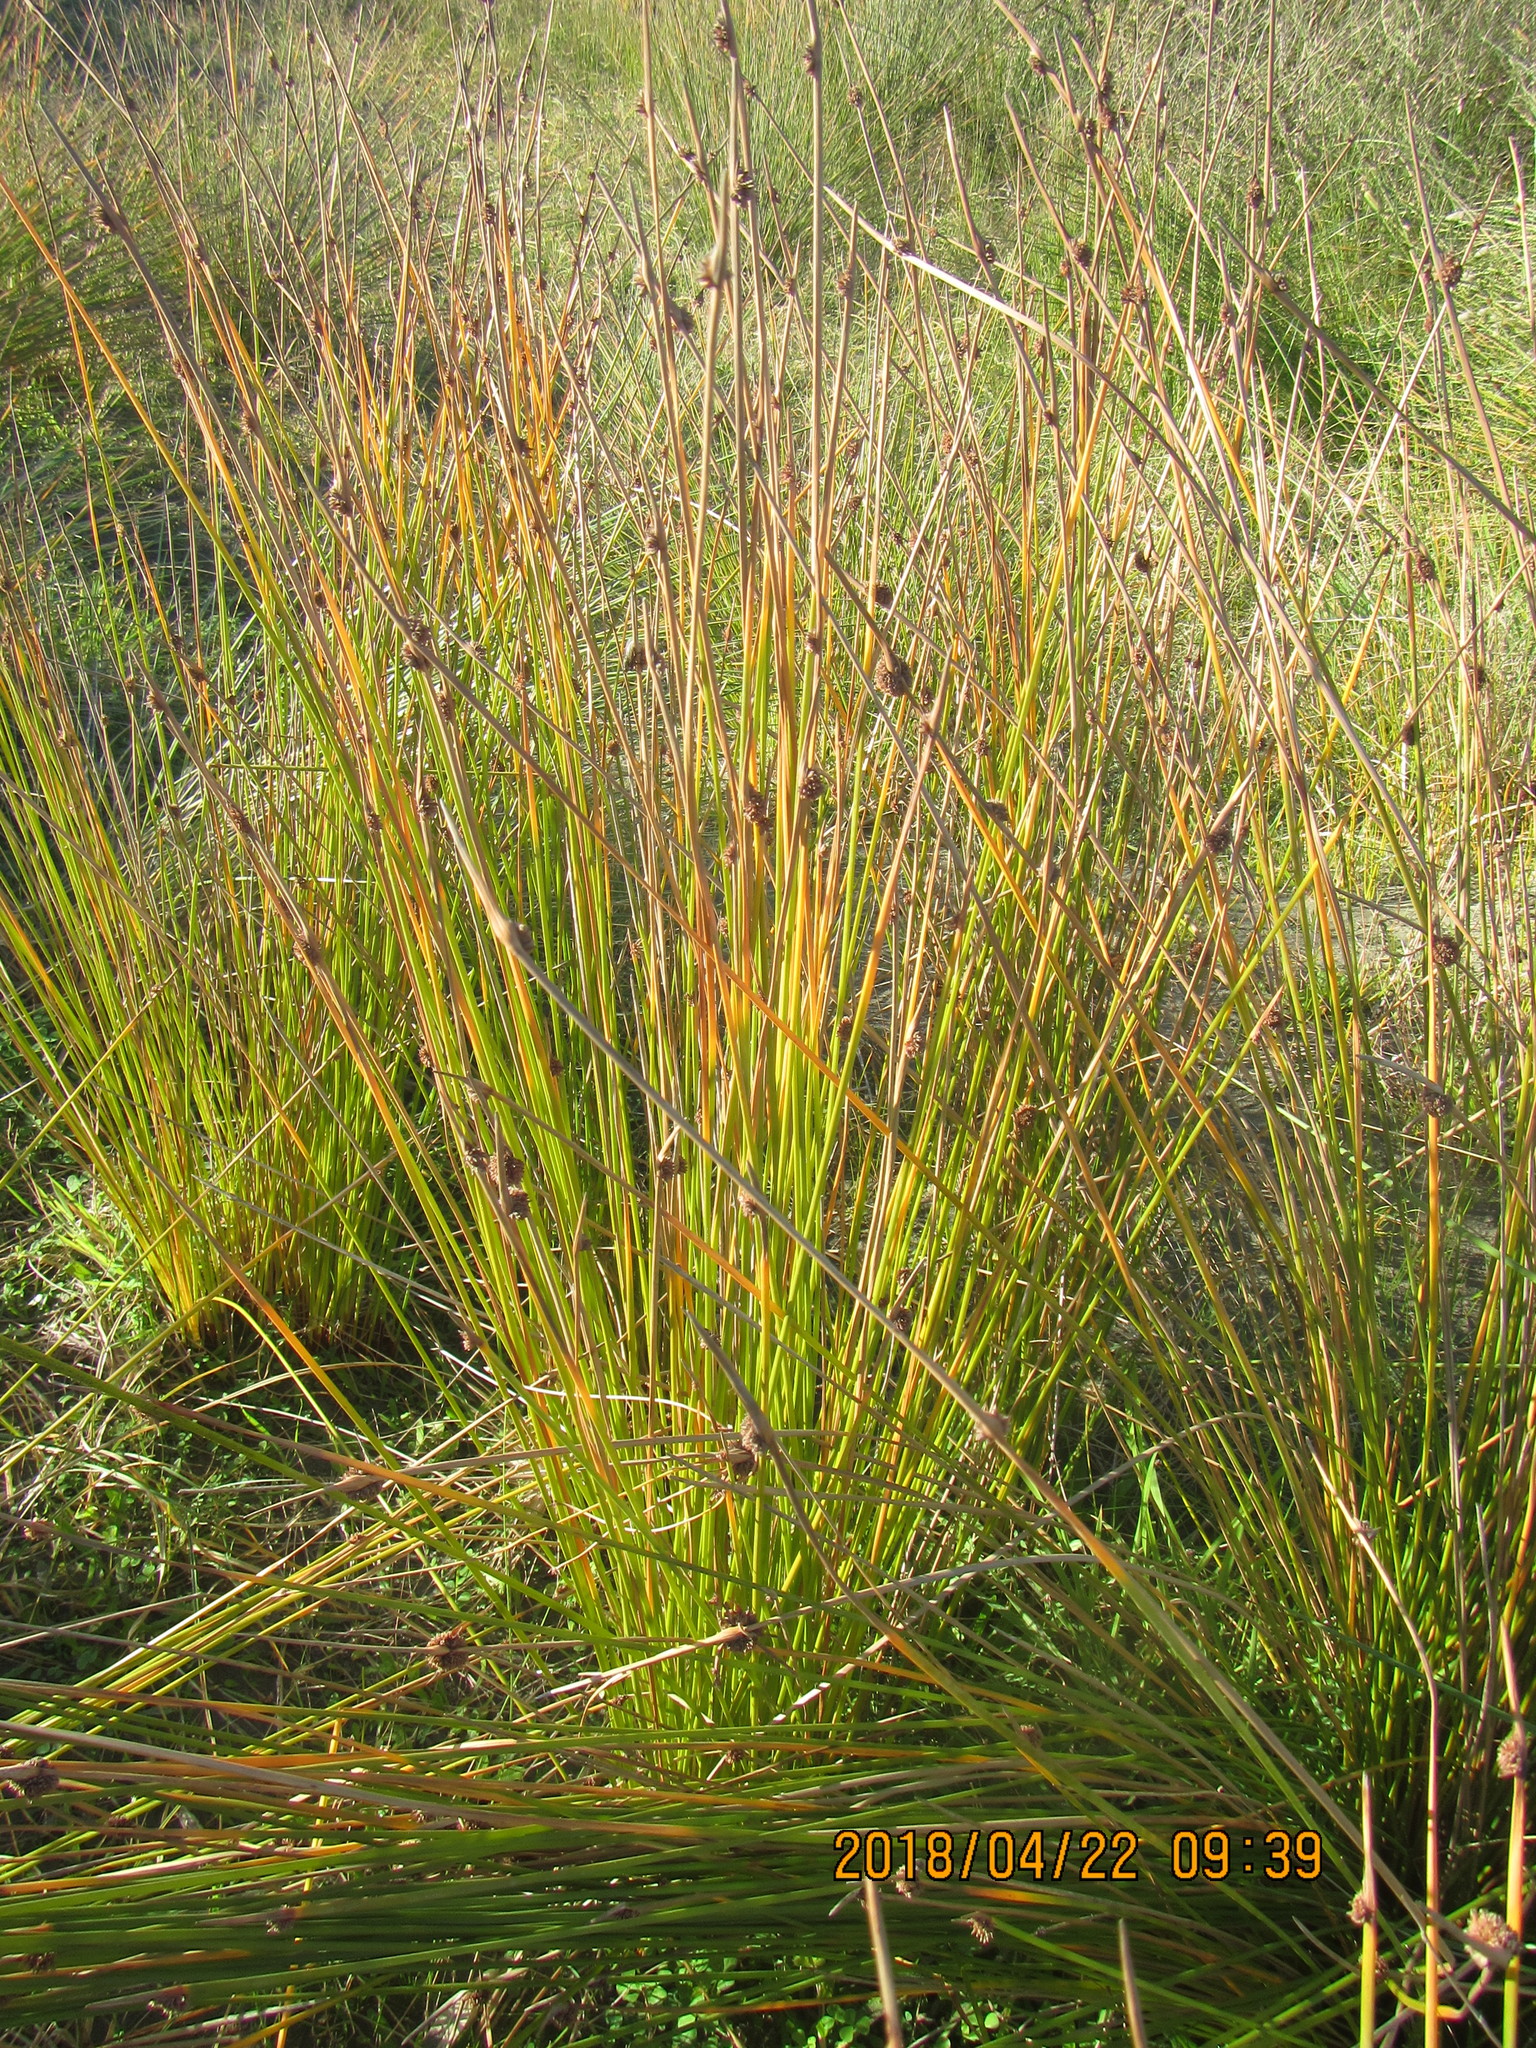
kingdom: Plantae
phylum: Tracheophyta
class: Liliopsida
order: Poales
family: Cyperaceae
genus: Ficinia
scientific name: Ficinia nodosa
